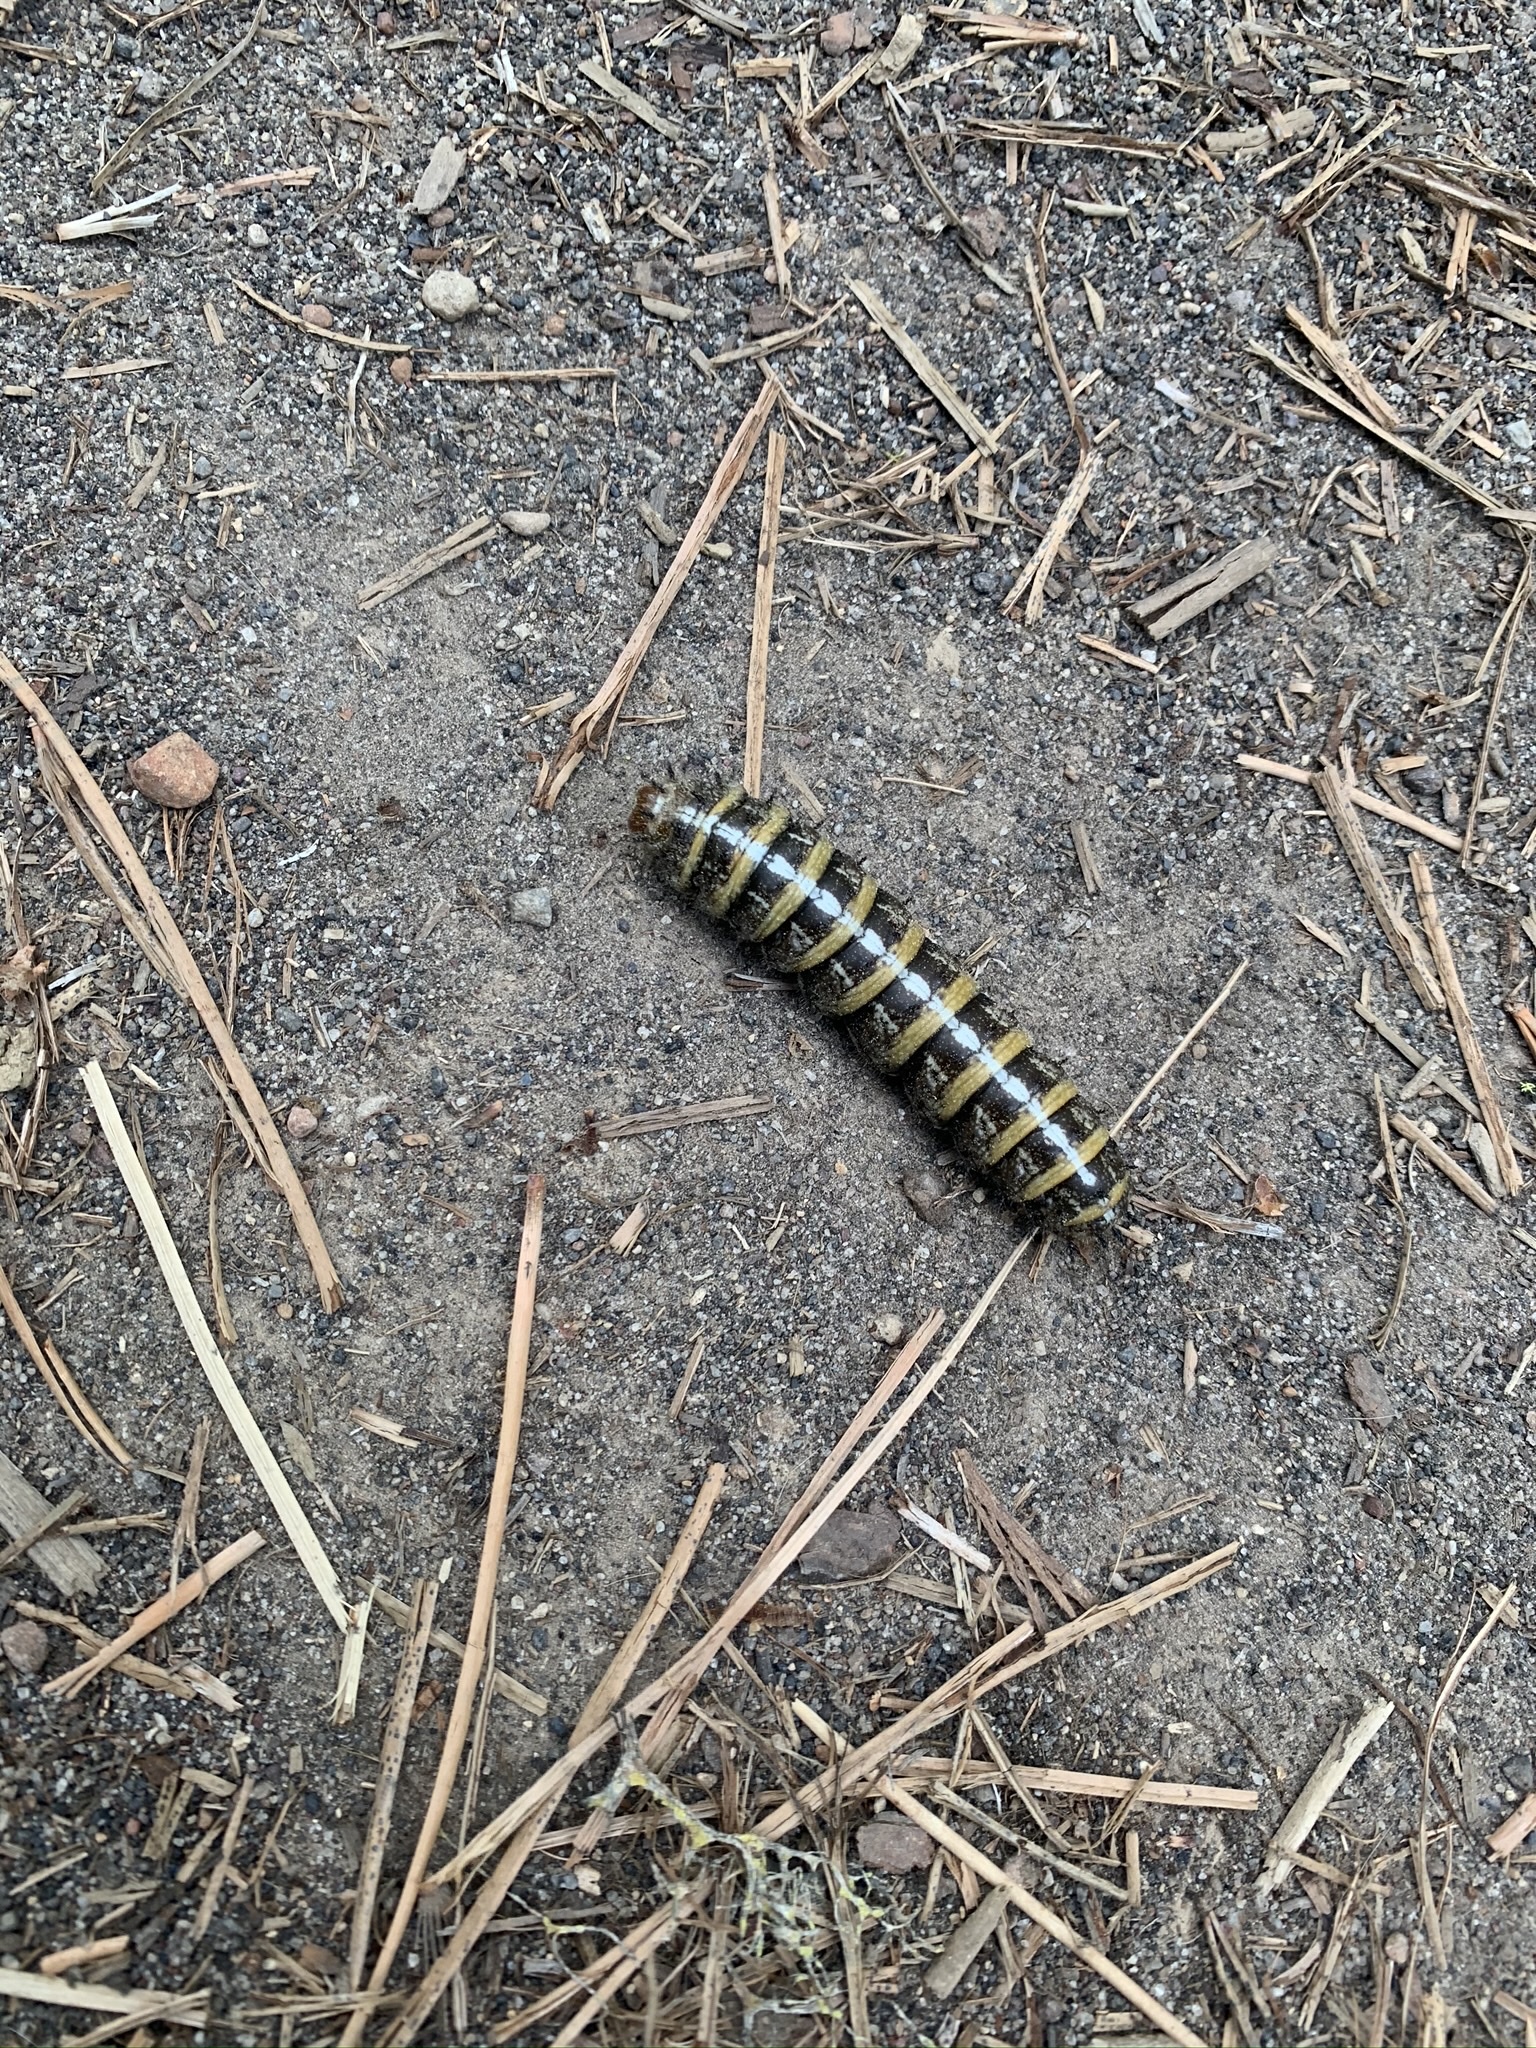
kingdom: Animalia
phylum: Arthropoda
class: Insecta
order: Lepidoptera
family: Saturniidae
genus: Coloradia
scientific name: Coloradia pandora
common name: Pandora pinemoth
